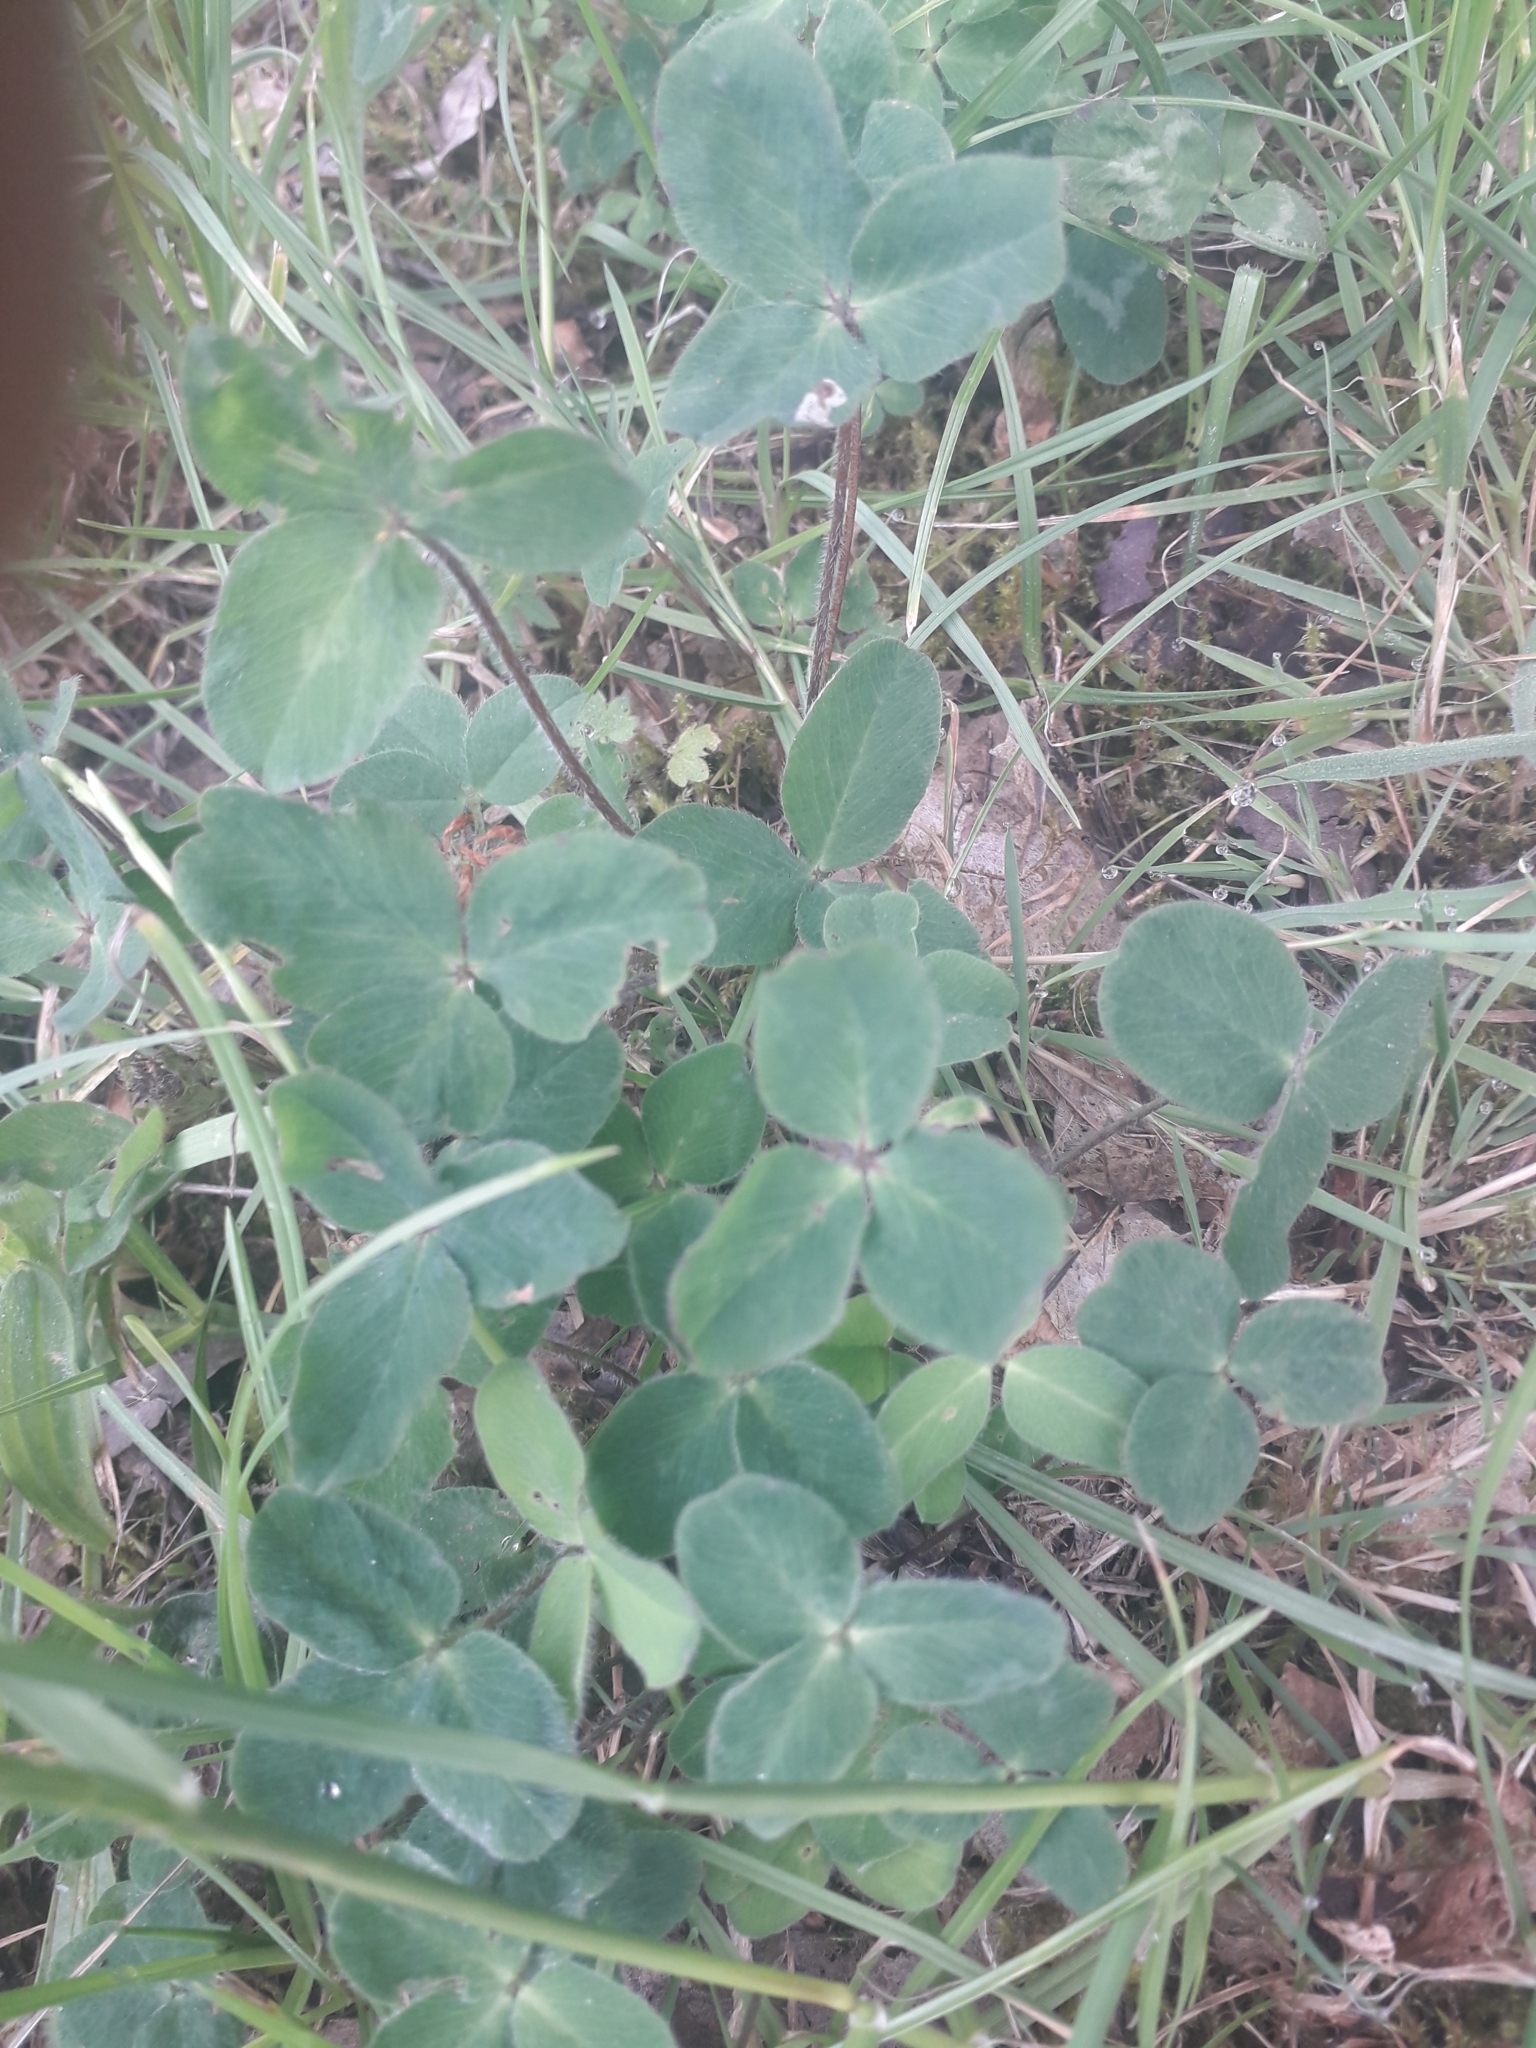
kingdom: Plantae
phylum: Tracheophyta
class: Magnoliopsida
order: Fabales
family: Fabaceae
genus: Trifolium
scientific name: Trifolium pratense
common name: Red clover
